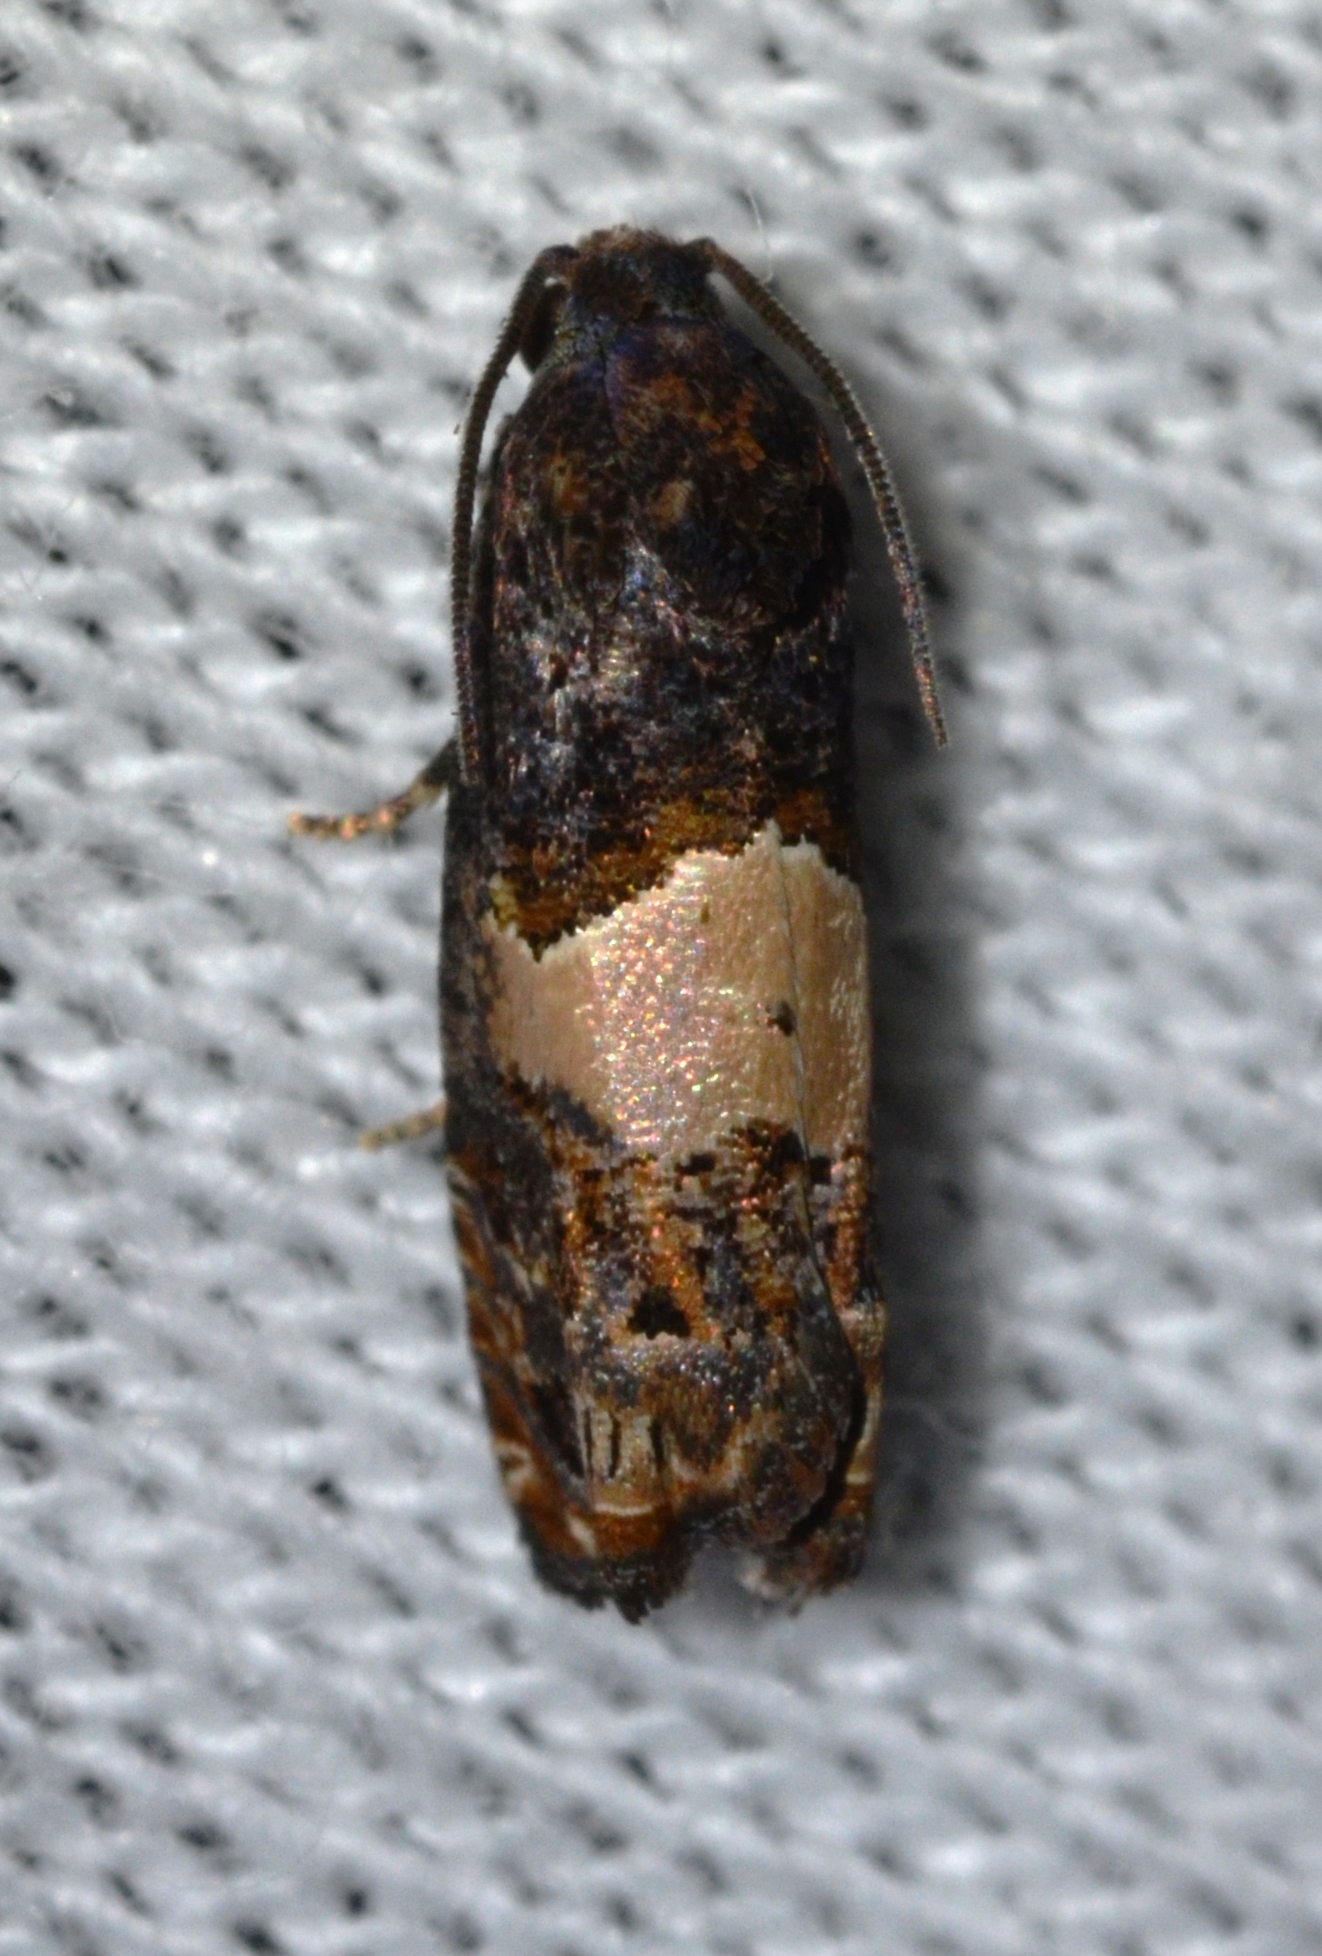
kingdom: Animalia
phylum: Arthropoda
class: Insecta
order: Lepidoptera
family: Tortricidae
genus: Epiblema
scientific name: Epiblema glenni
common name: Glenn's epiblema
